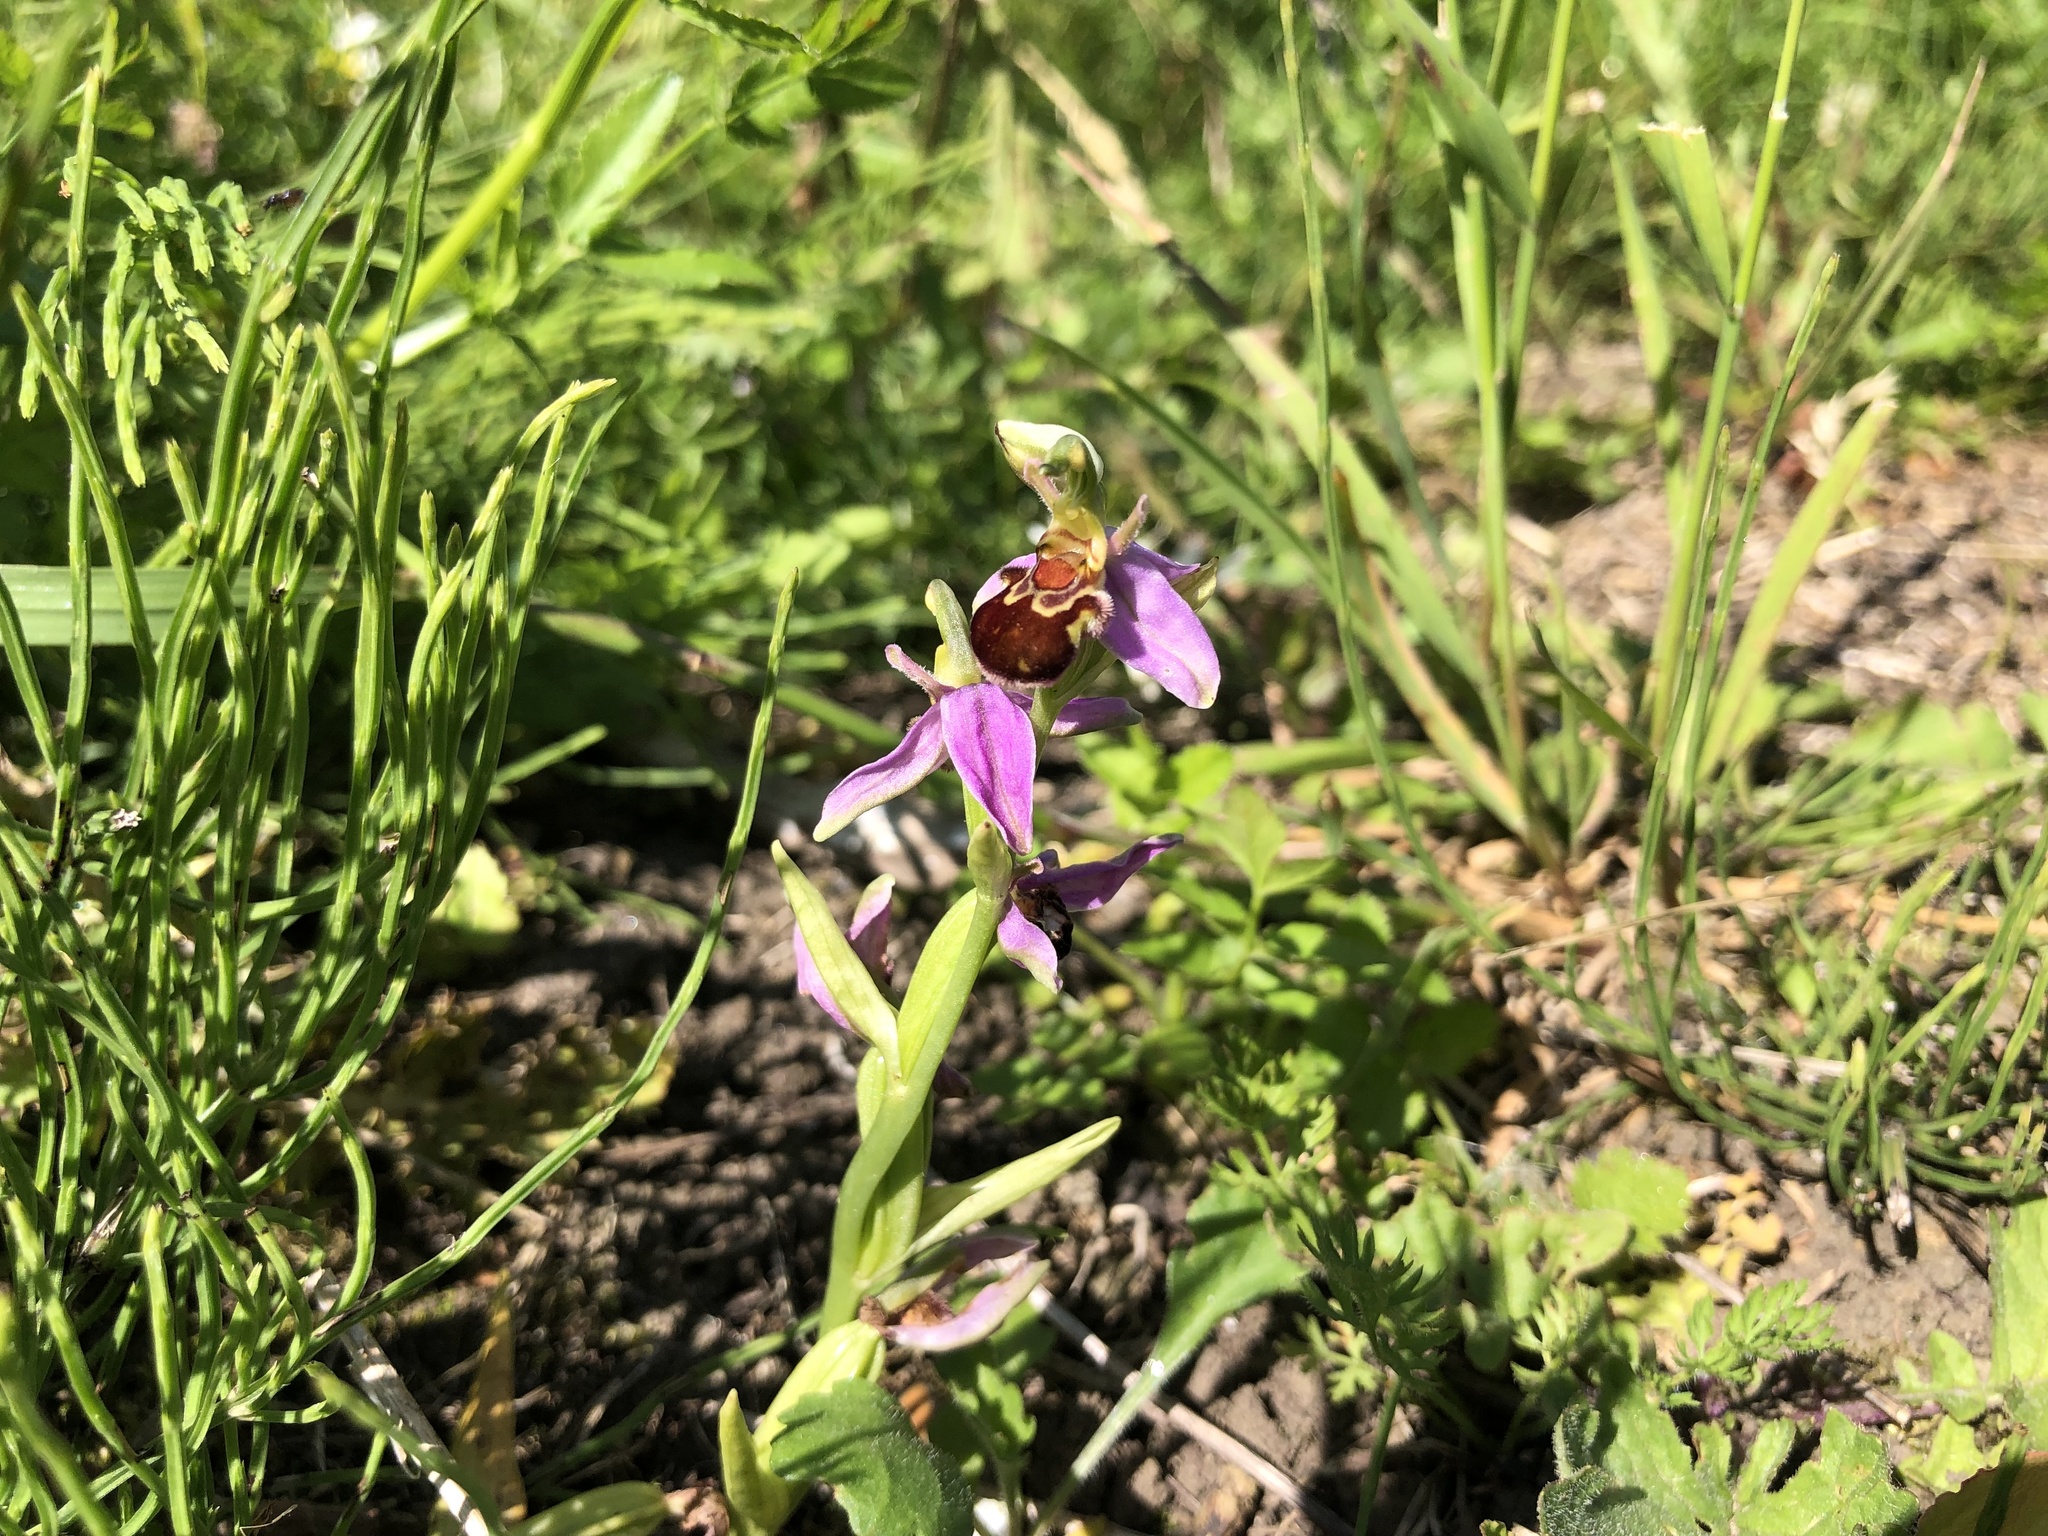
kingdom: Plantae
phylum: Tracheophyta
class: Liliopsida
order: Asparagales
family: Orchidaceae
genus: Ophrys
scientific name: Ophrys apifera
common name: Bee orchid
